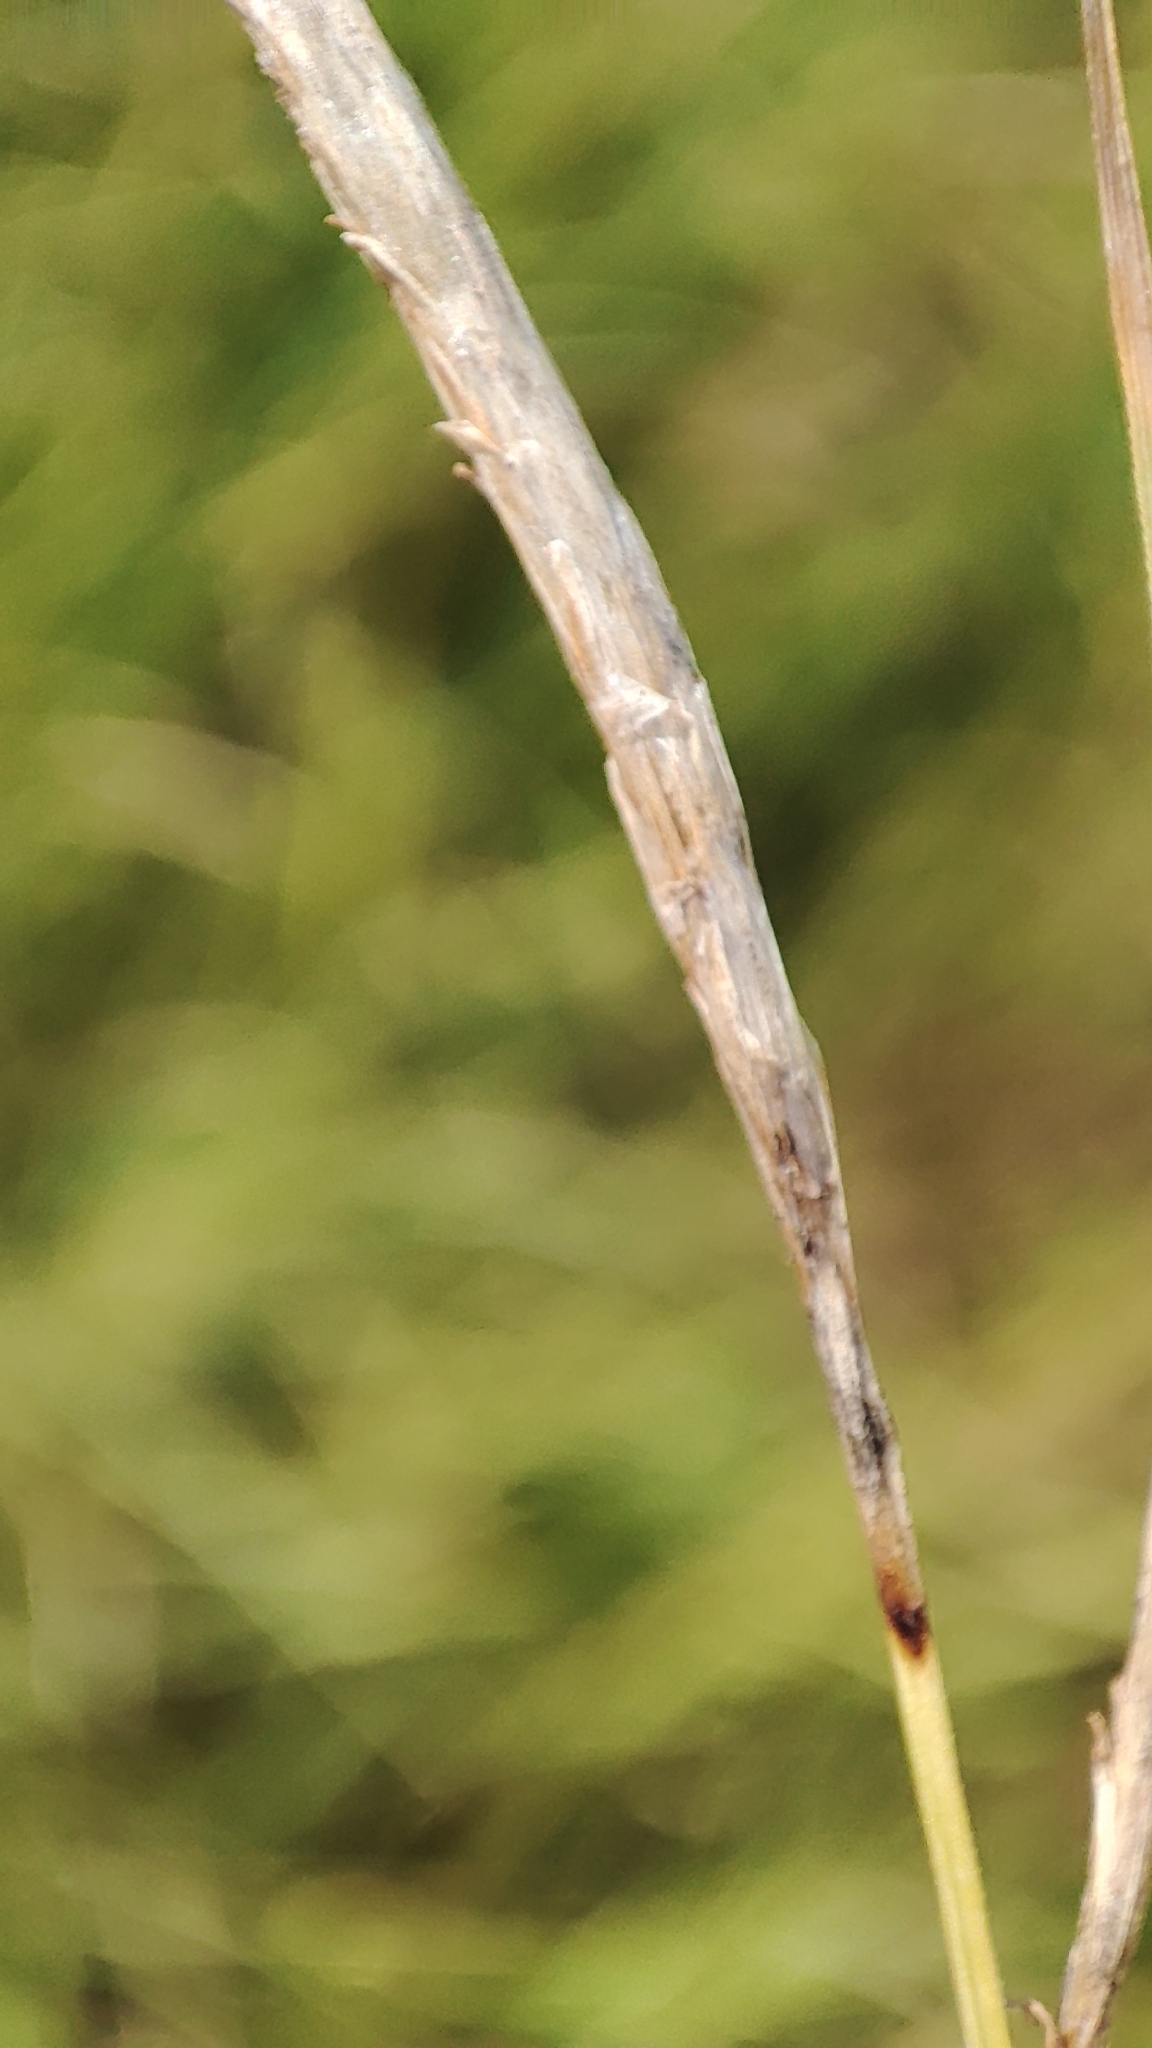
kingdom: Plantae
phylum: Tracheophyta
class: Liliopsida
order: Poales
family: Cyperaceae
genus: Carex
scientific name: Carex rostrata
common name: Bottle sedge
